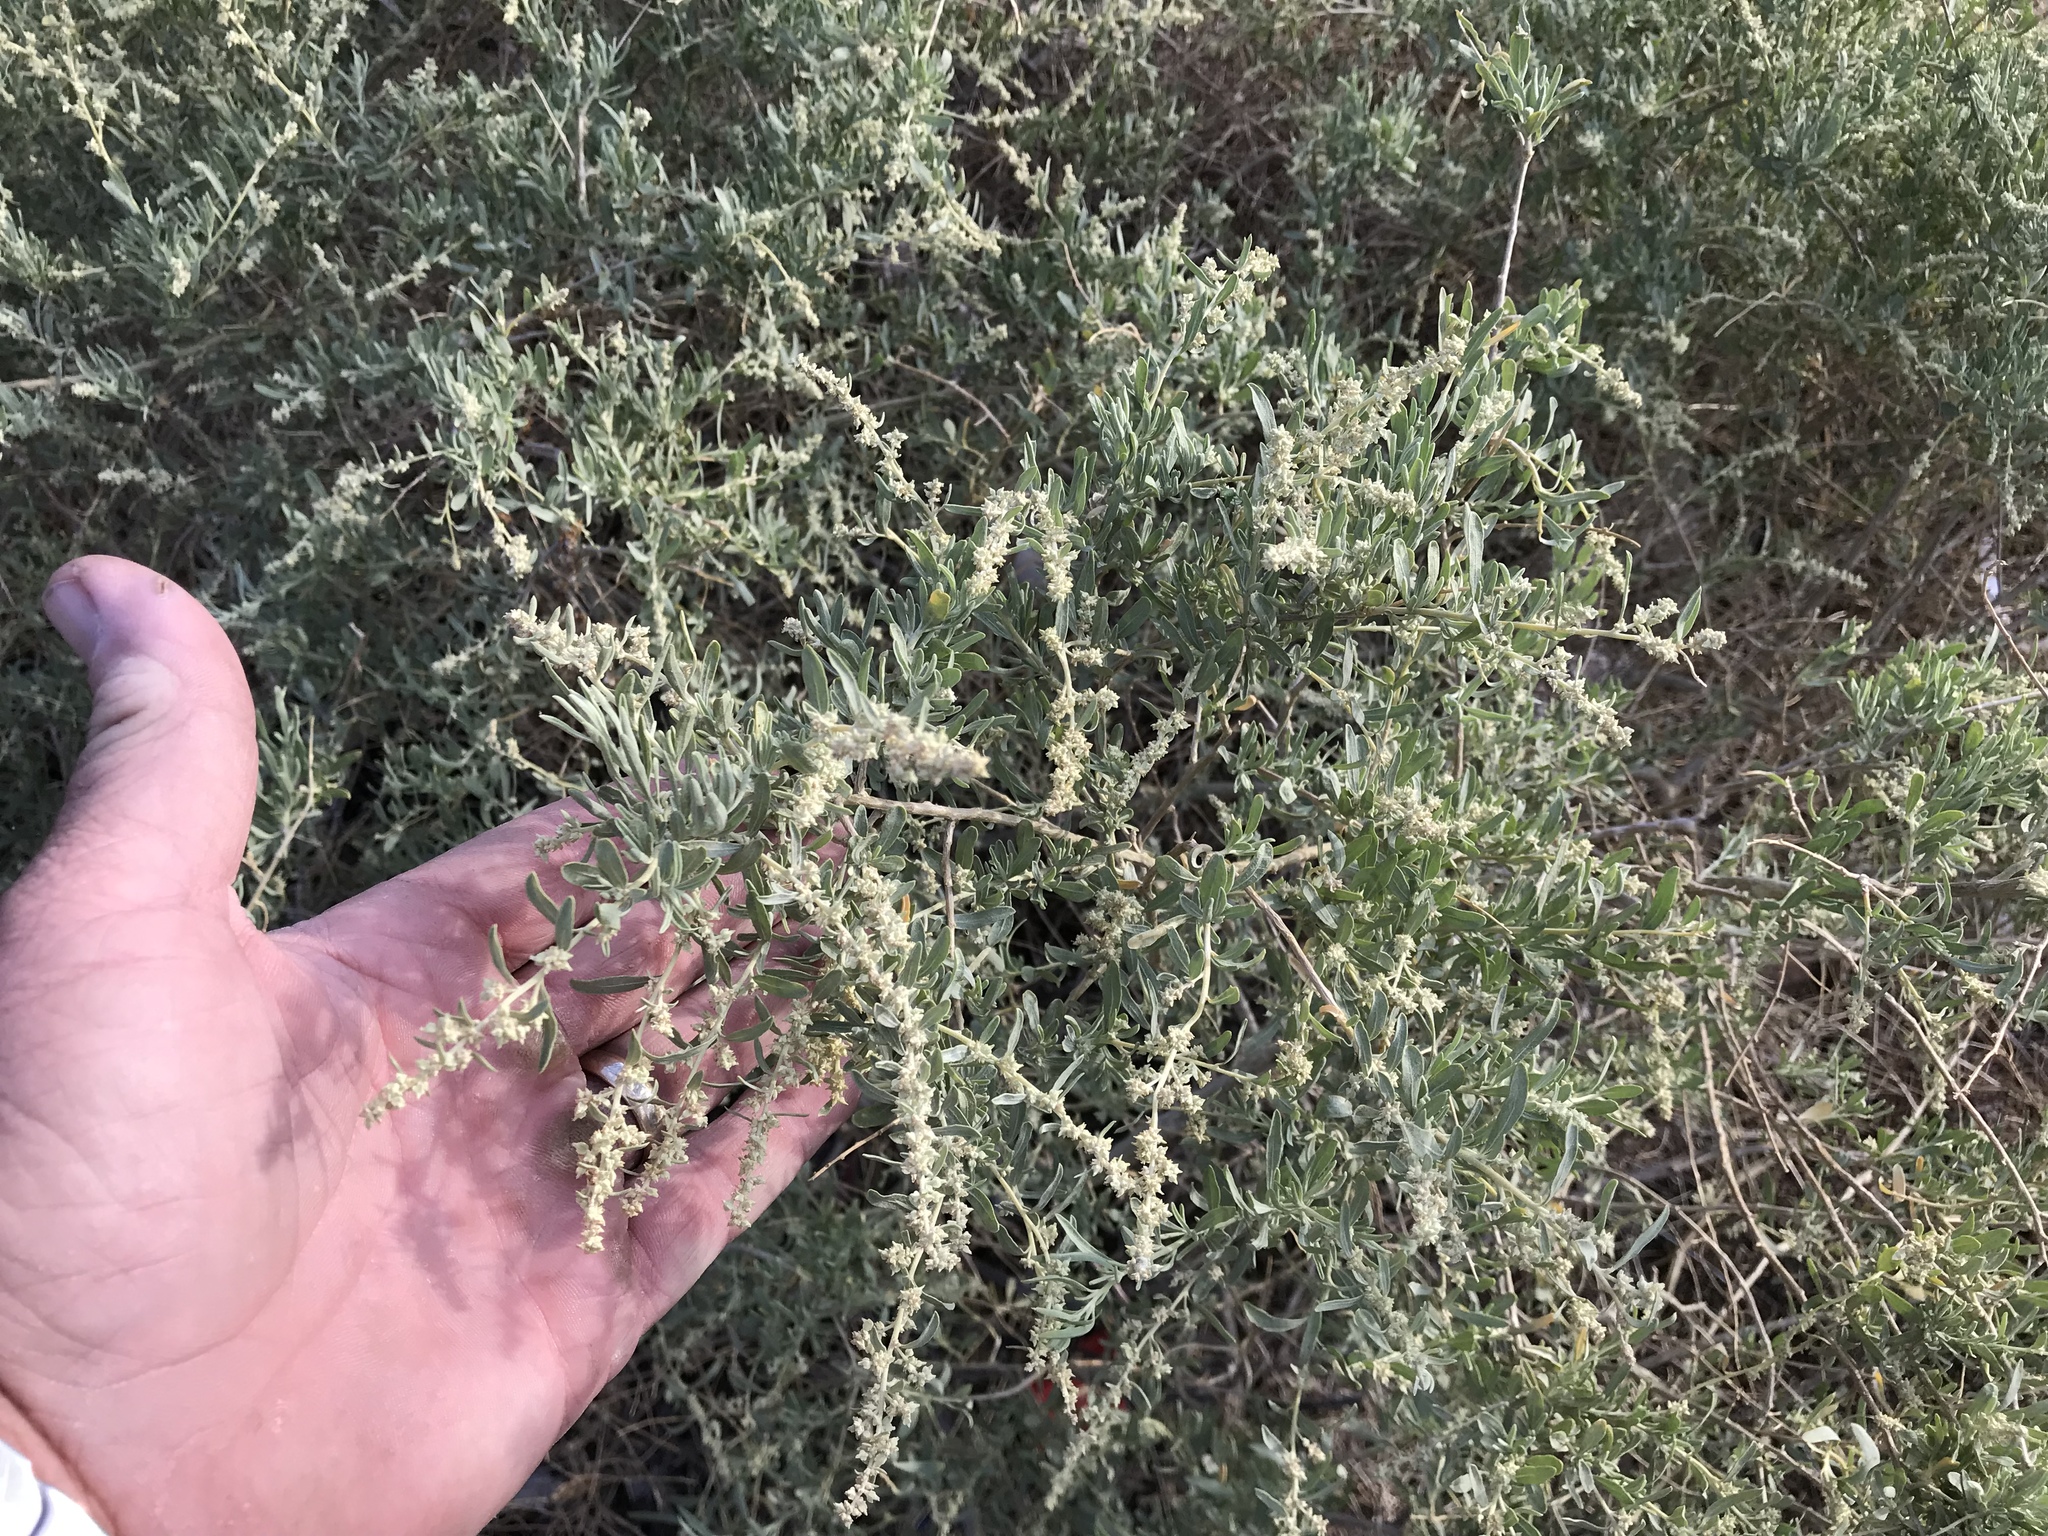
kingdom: Plantae
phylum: Tracheophyta
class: Magnoliopsida
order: Caryophyllales
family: Amaranthaceae
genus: Atriplex
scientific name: Atriplex canescens
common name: Four-wing saltbush
